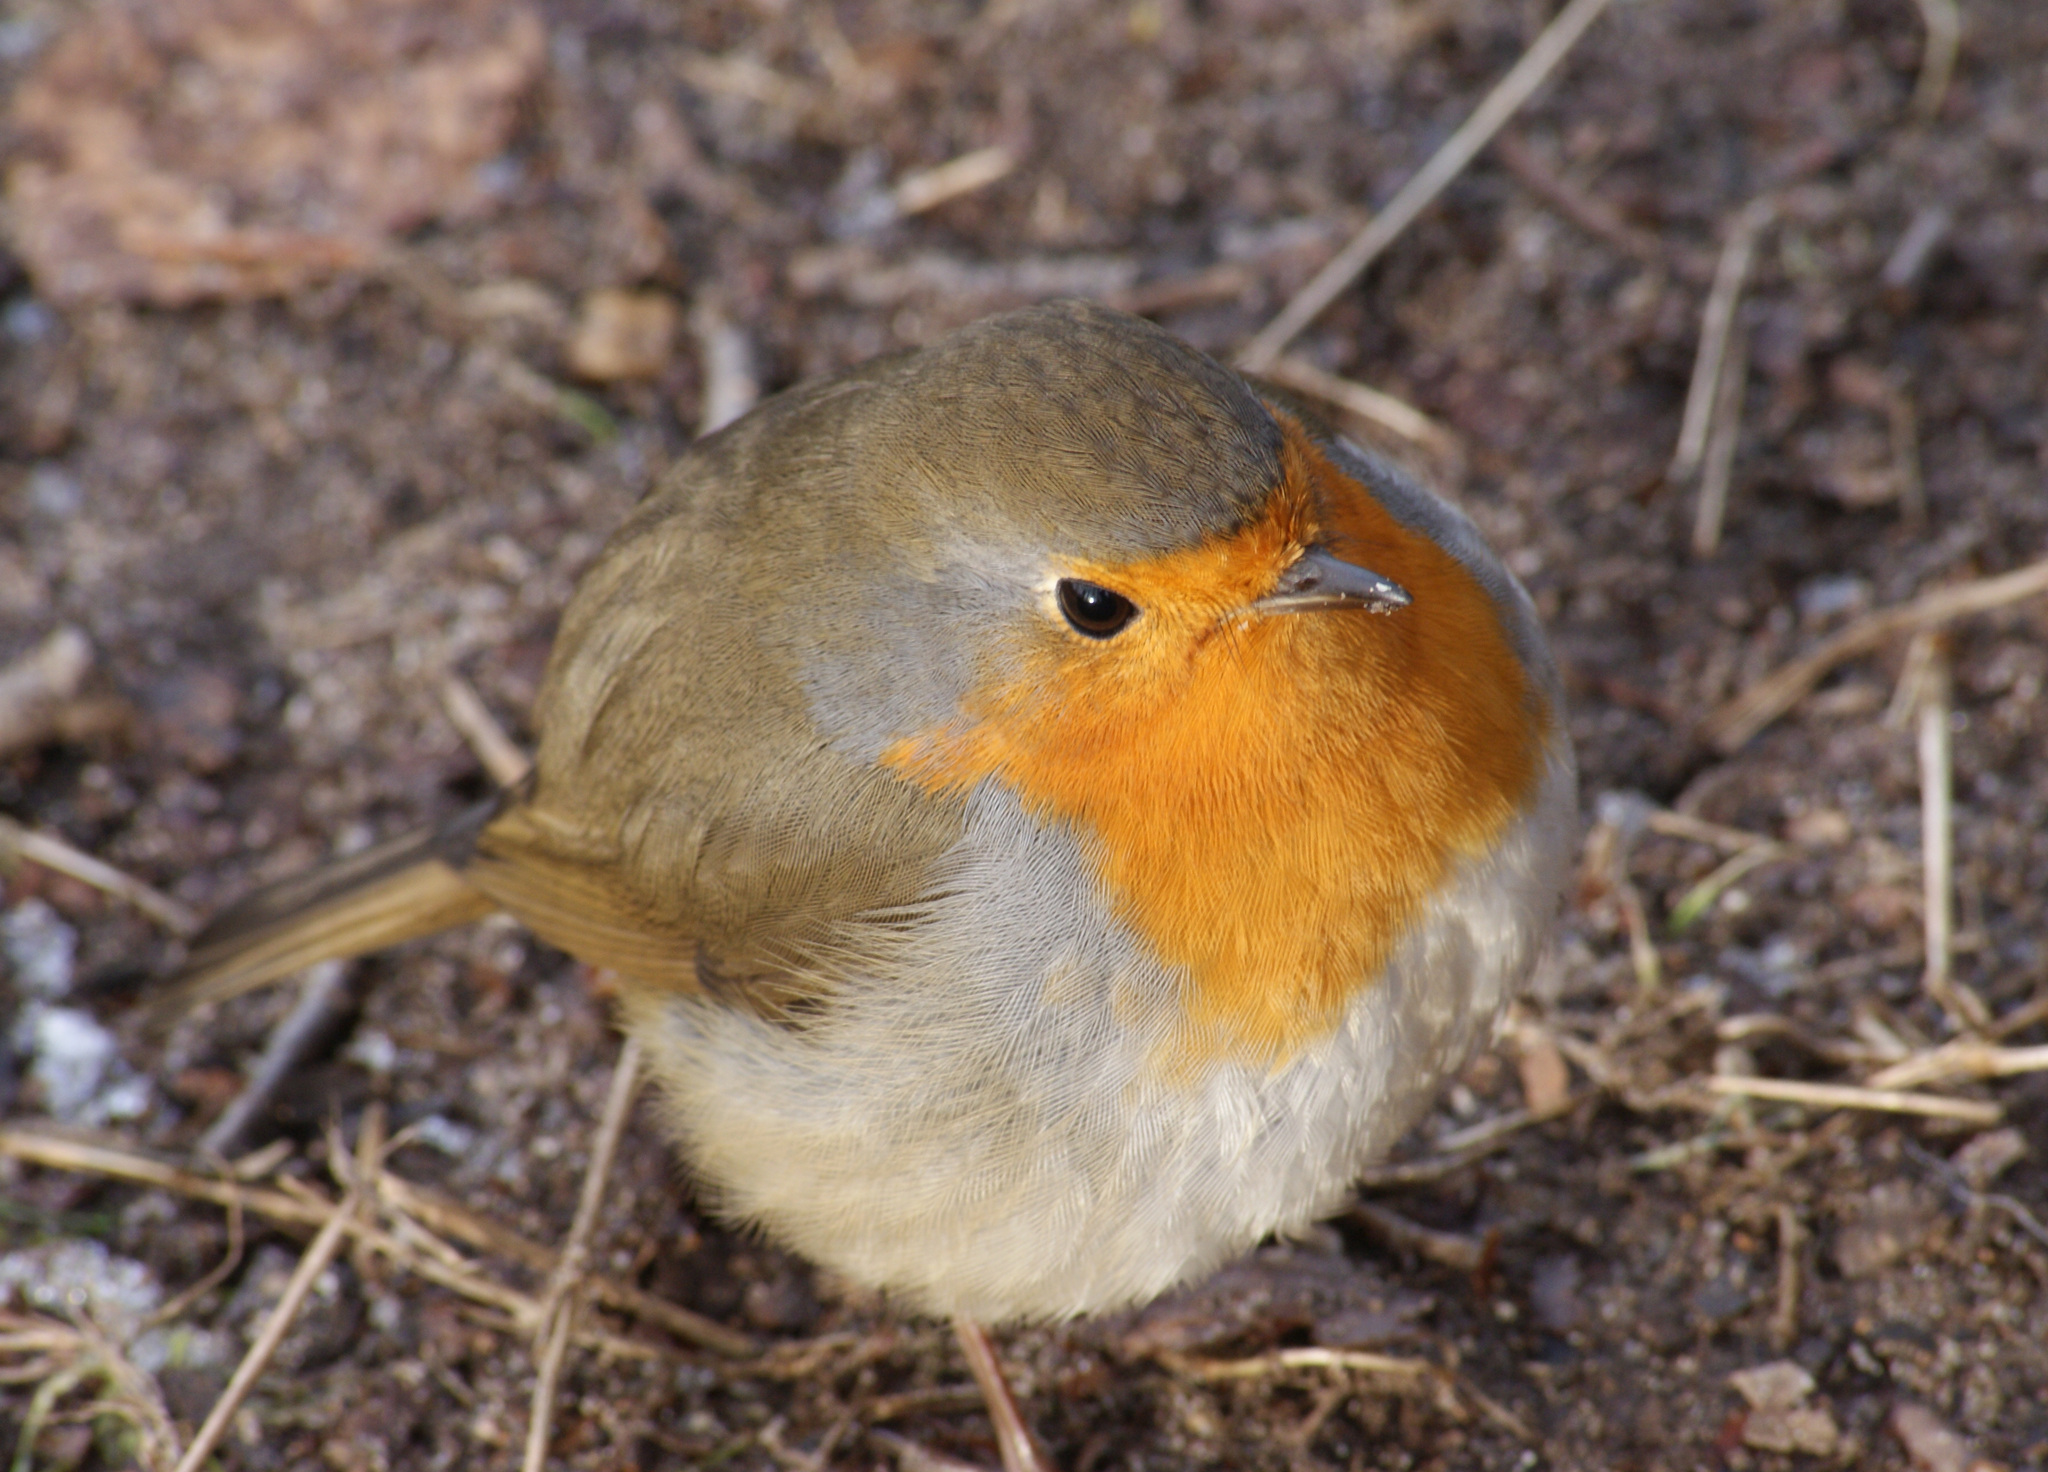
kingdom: Animalia
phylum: Chordata
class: Aves
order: Passeriformes
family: Muscicapidae
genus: Erithacus
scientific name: Erithacus rubecula
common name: European robin
